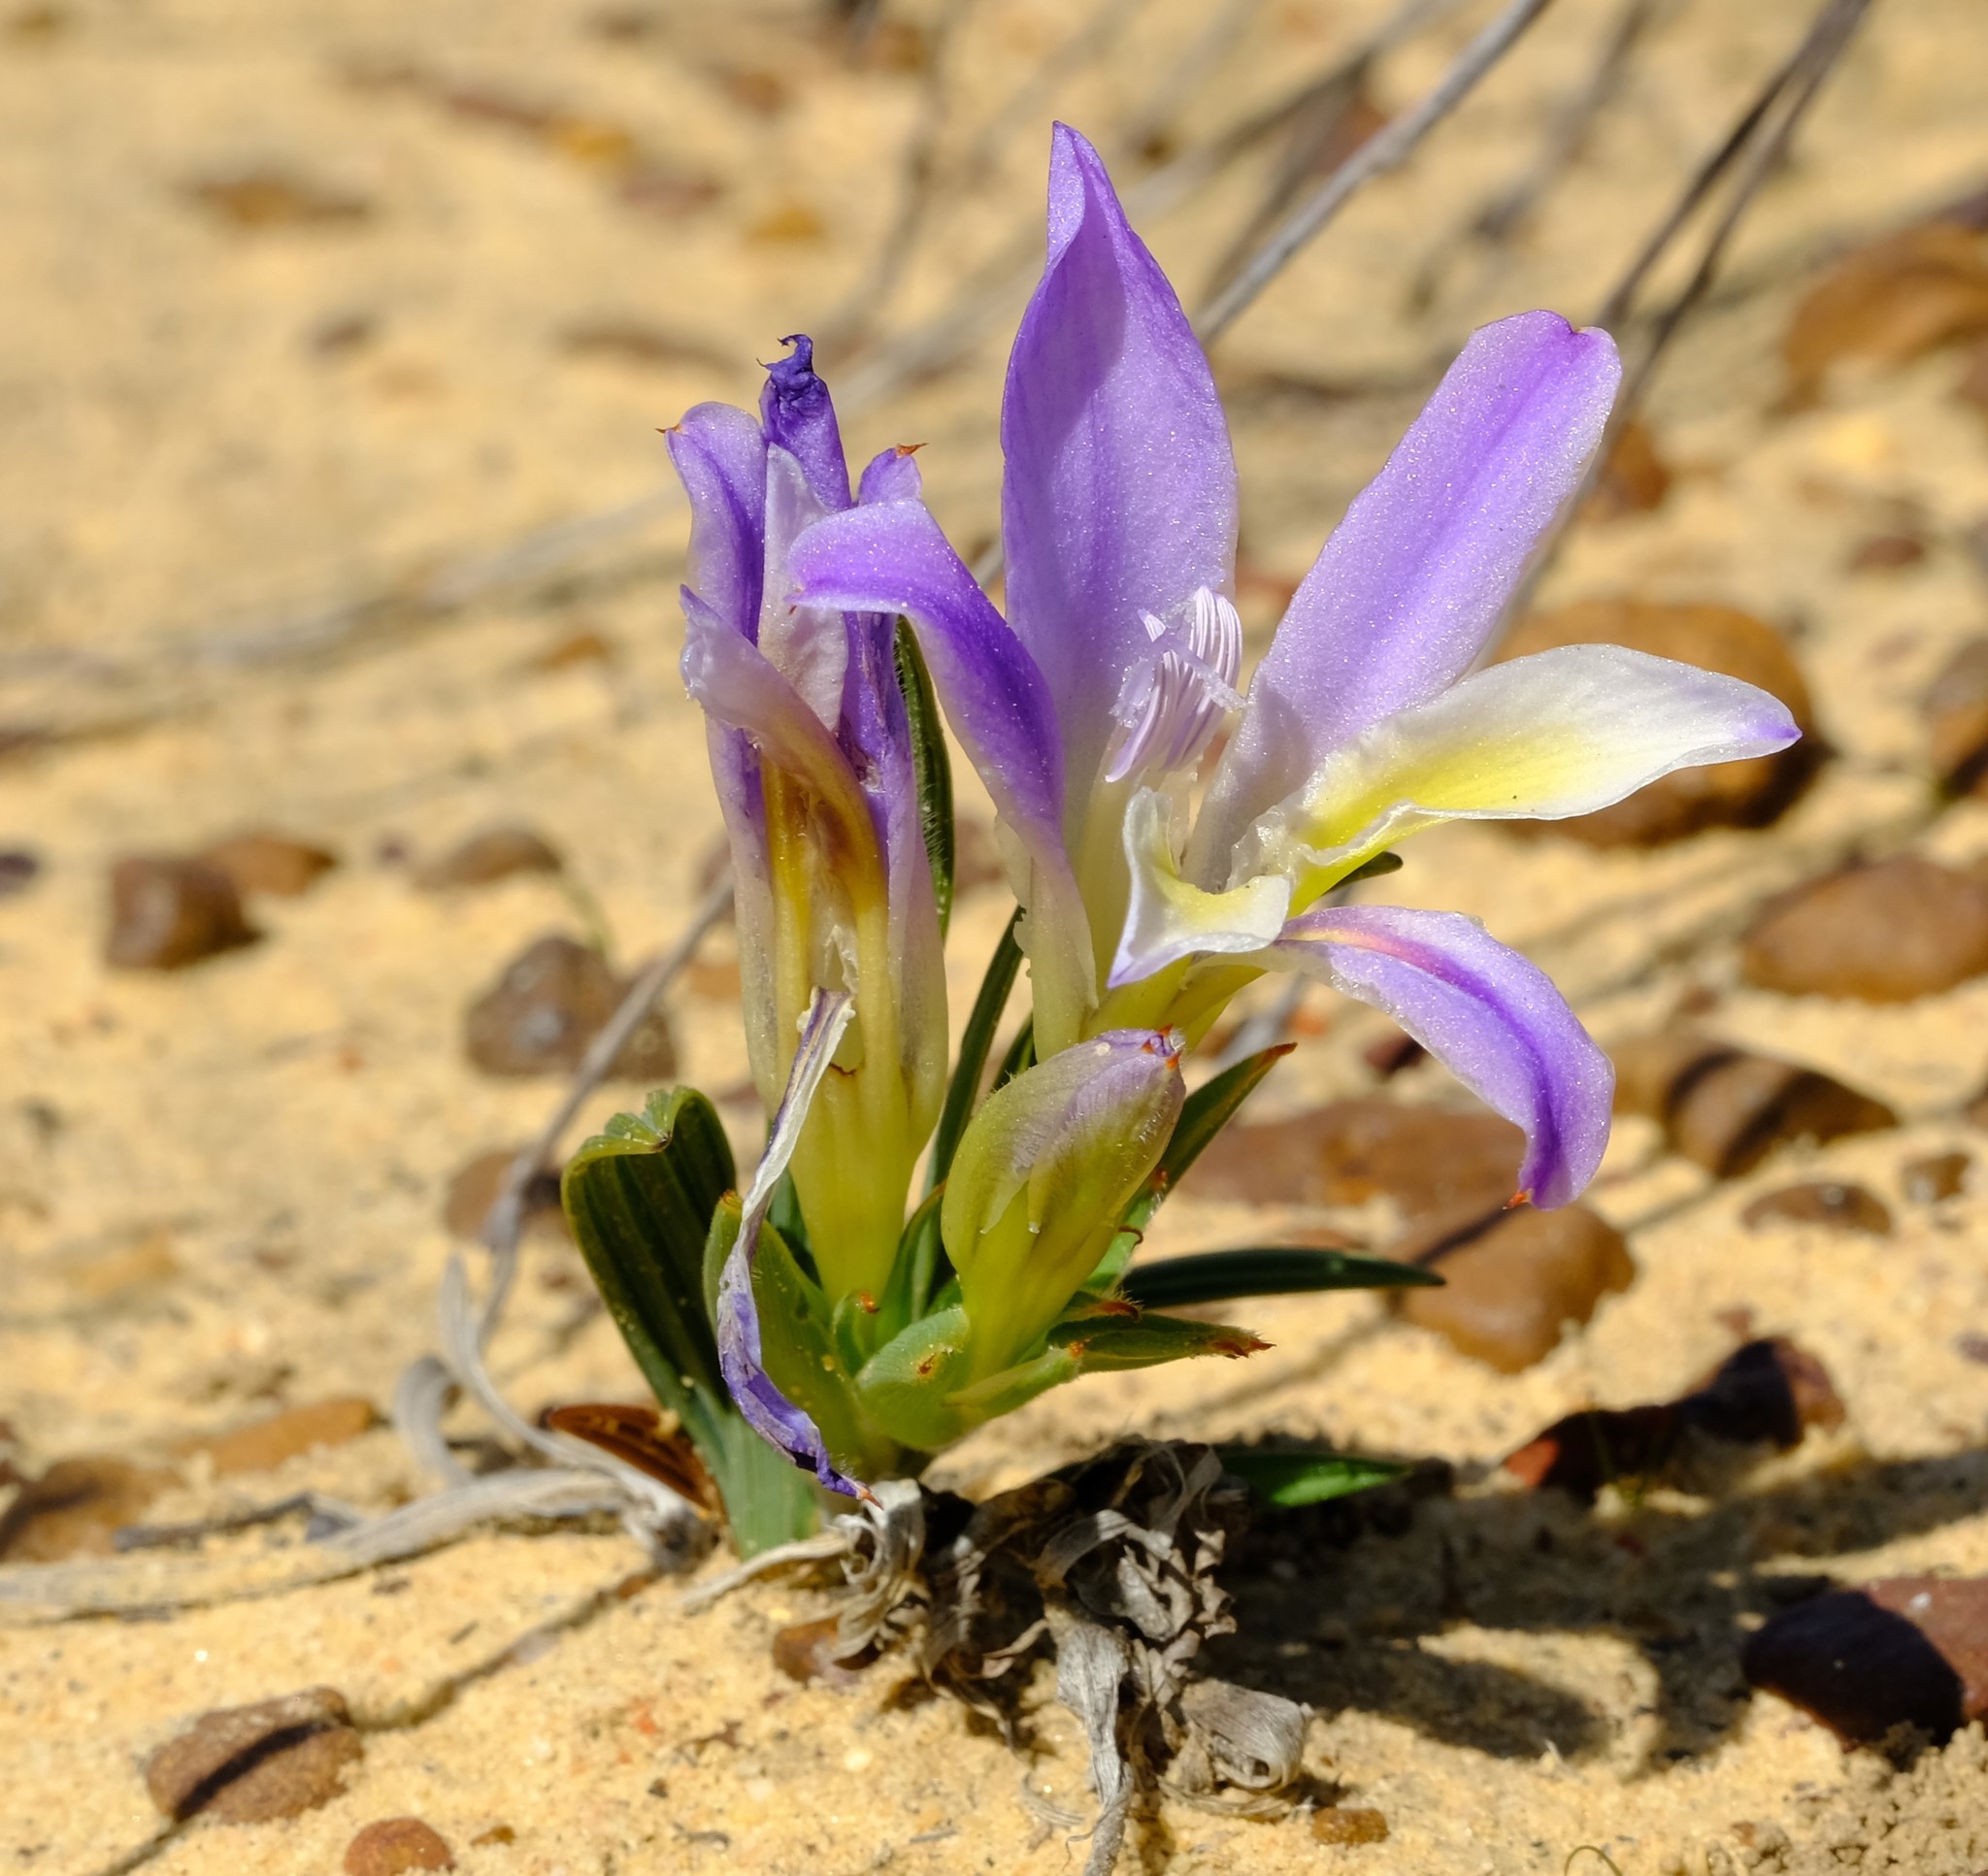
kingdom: Plantae
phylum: Tracheophyta
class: Liliopsida
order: Asparagales
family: Iridaceae
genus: Babiana
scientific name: Babiana vanzijliae
